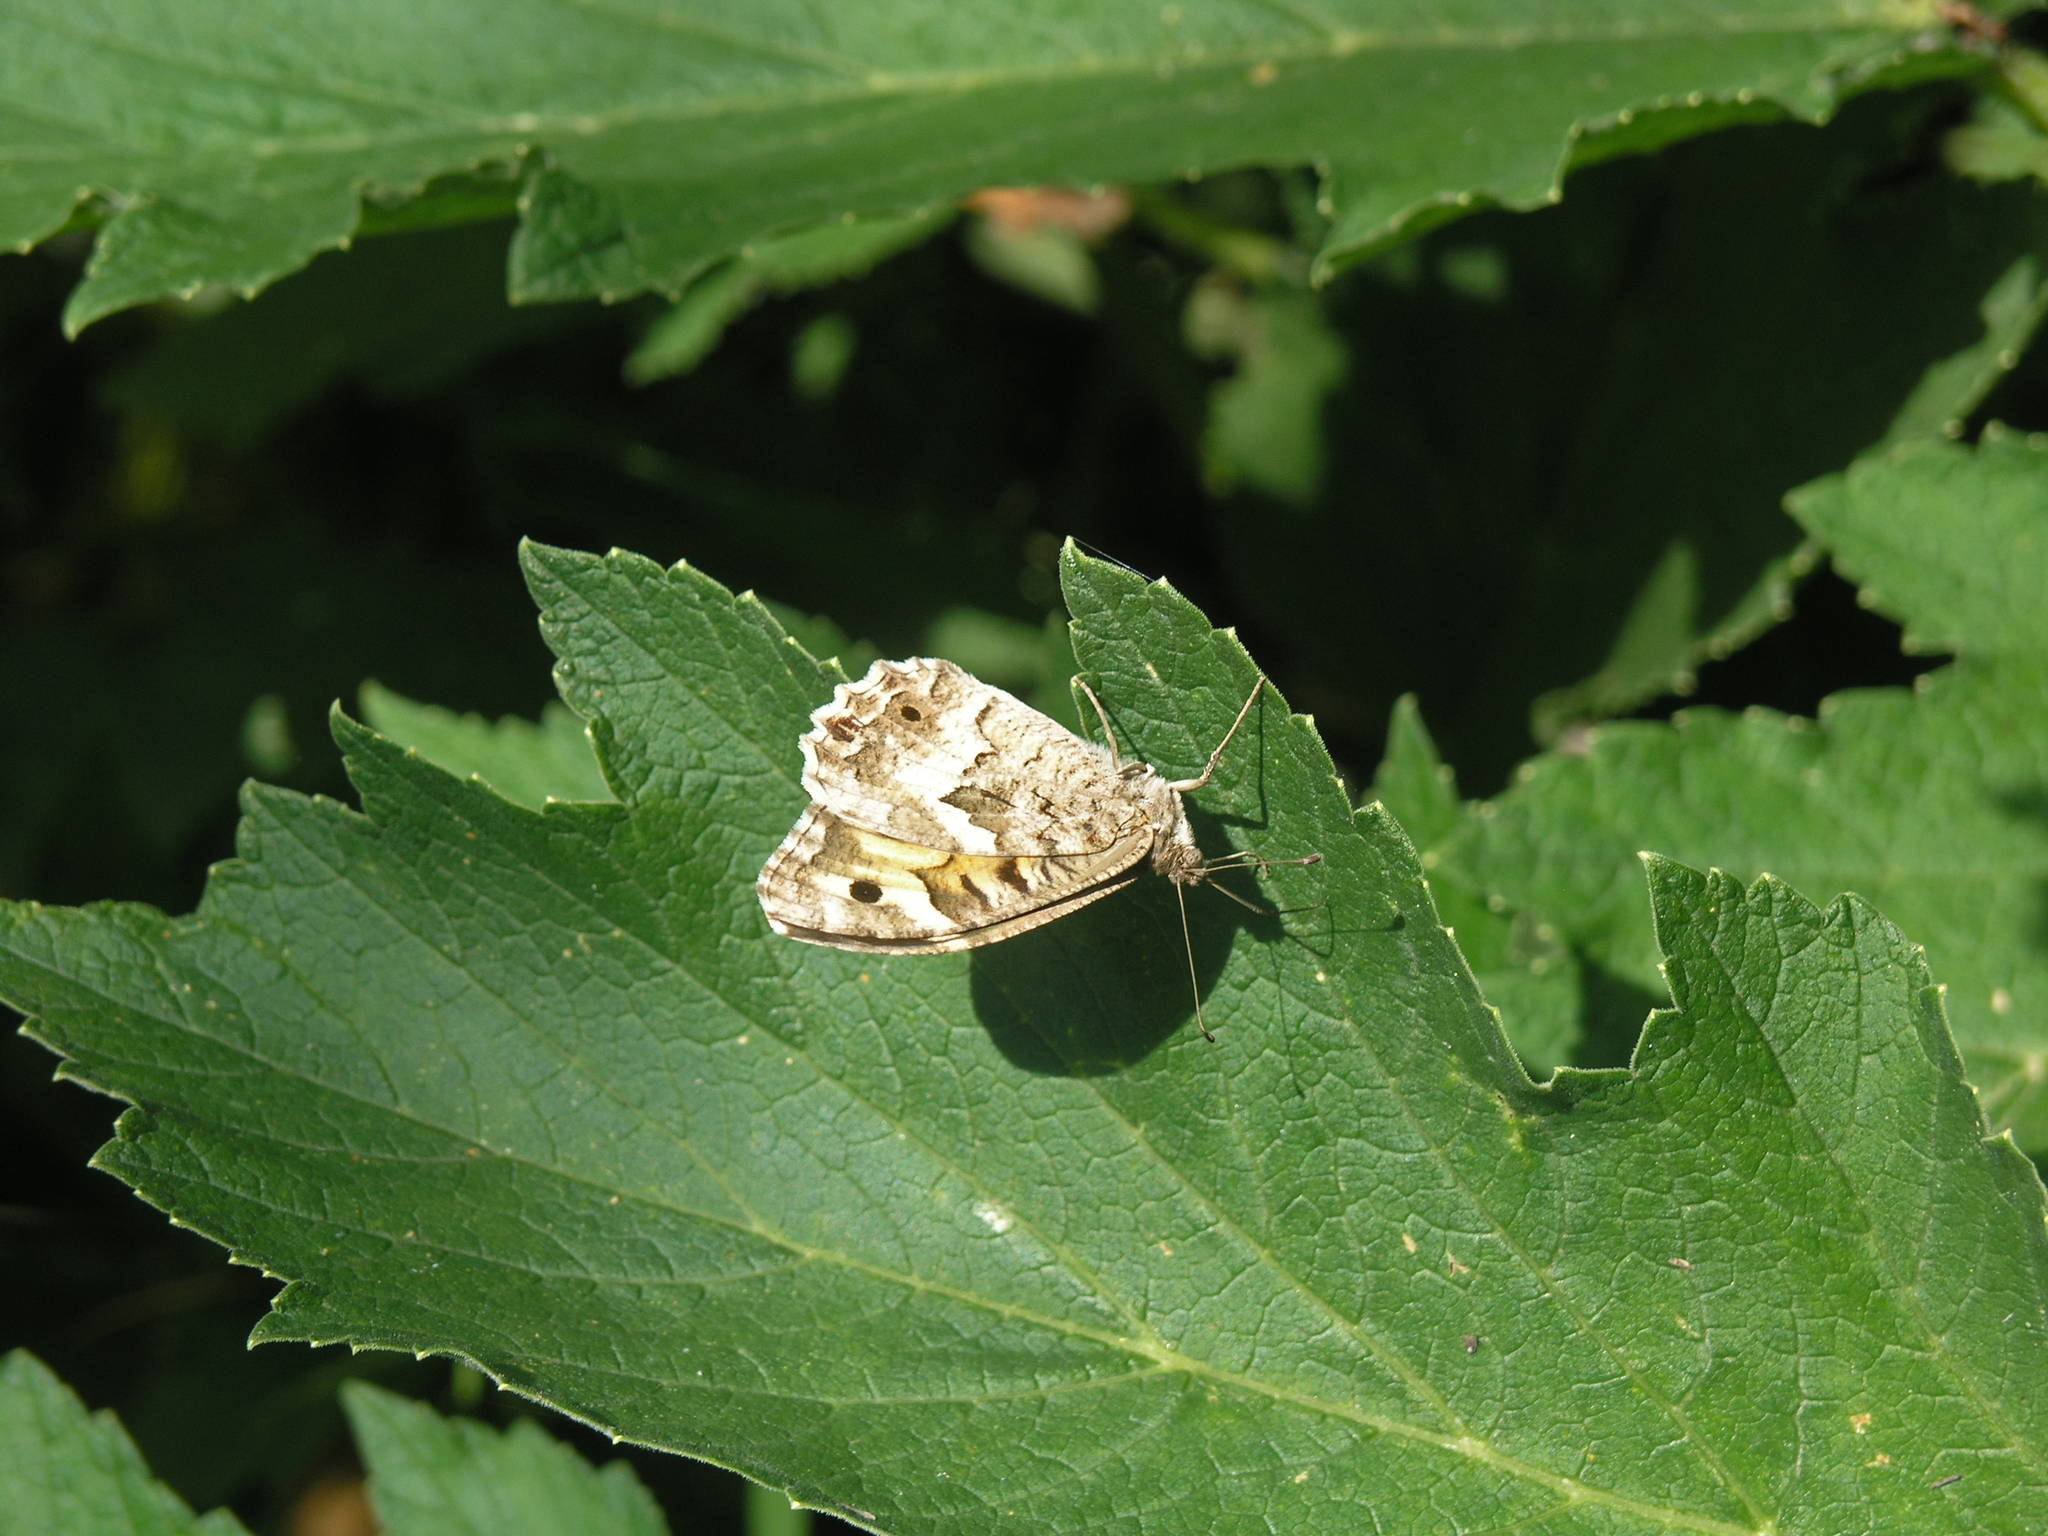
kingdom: Animalia
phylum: Arthropoda
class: Insecta
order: Lepidoptera
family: Nymphalidae
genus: Satyrus
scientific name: Satyrus Chazara enervata
